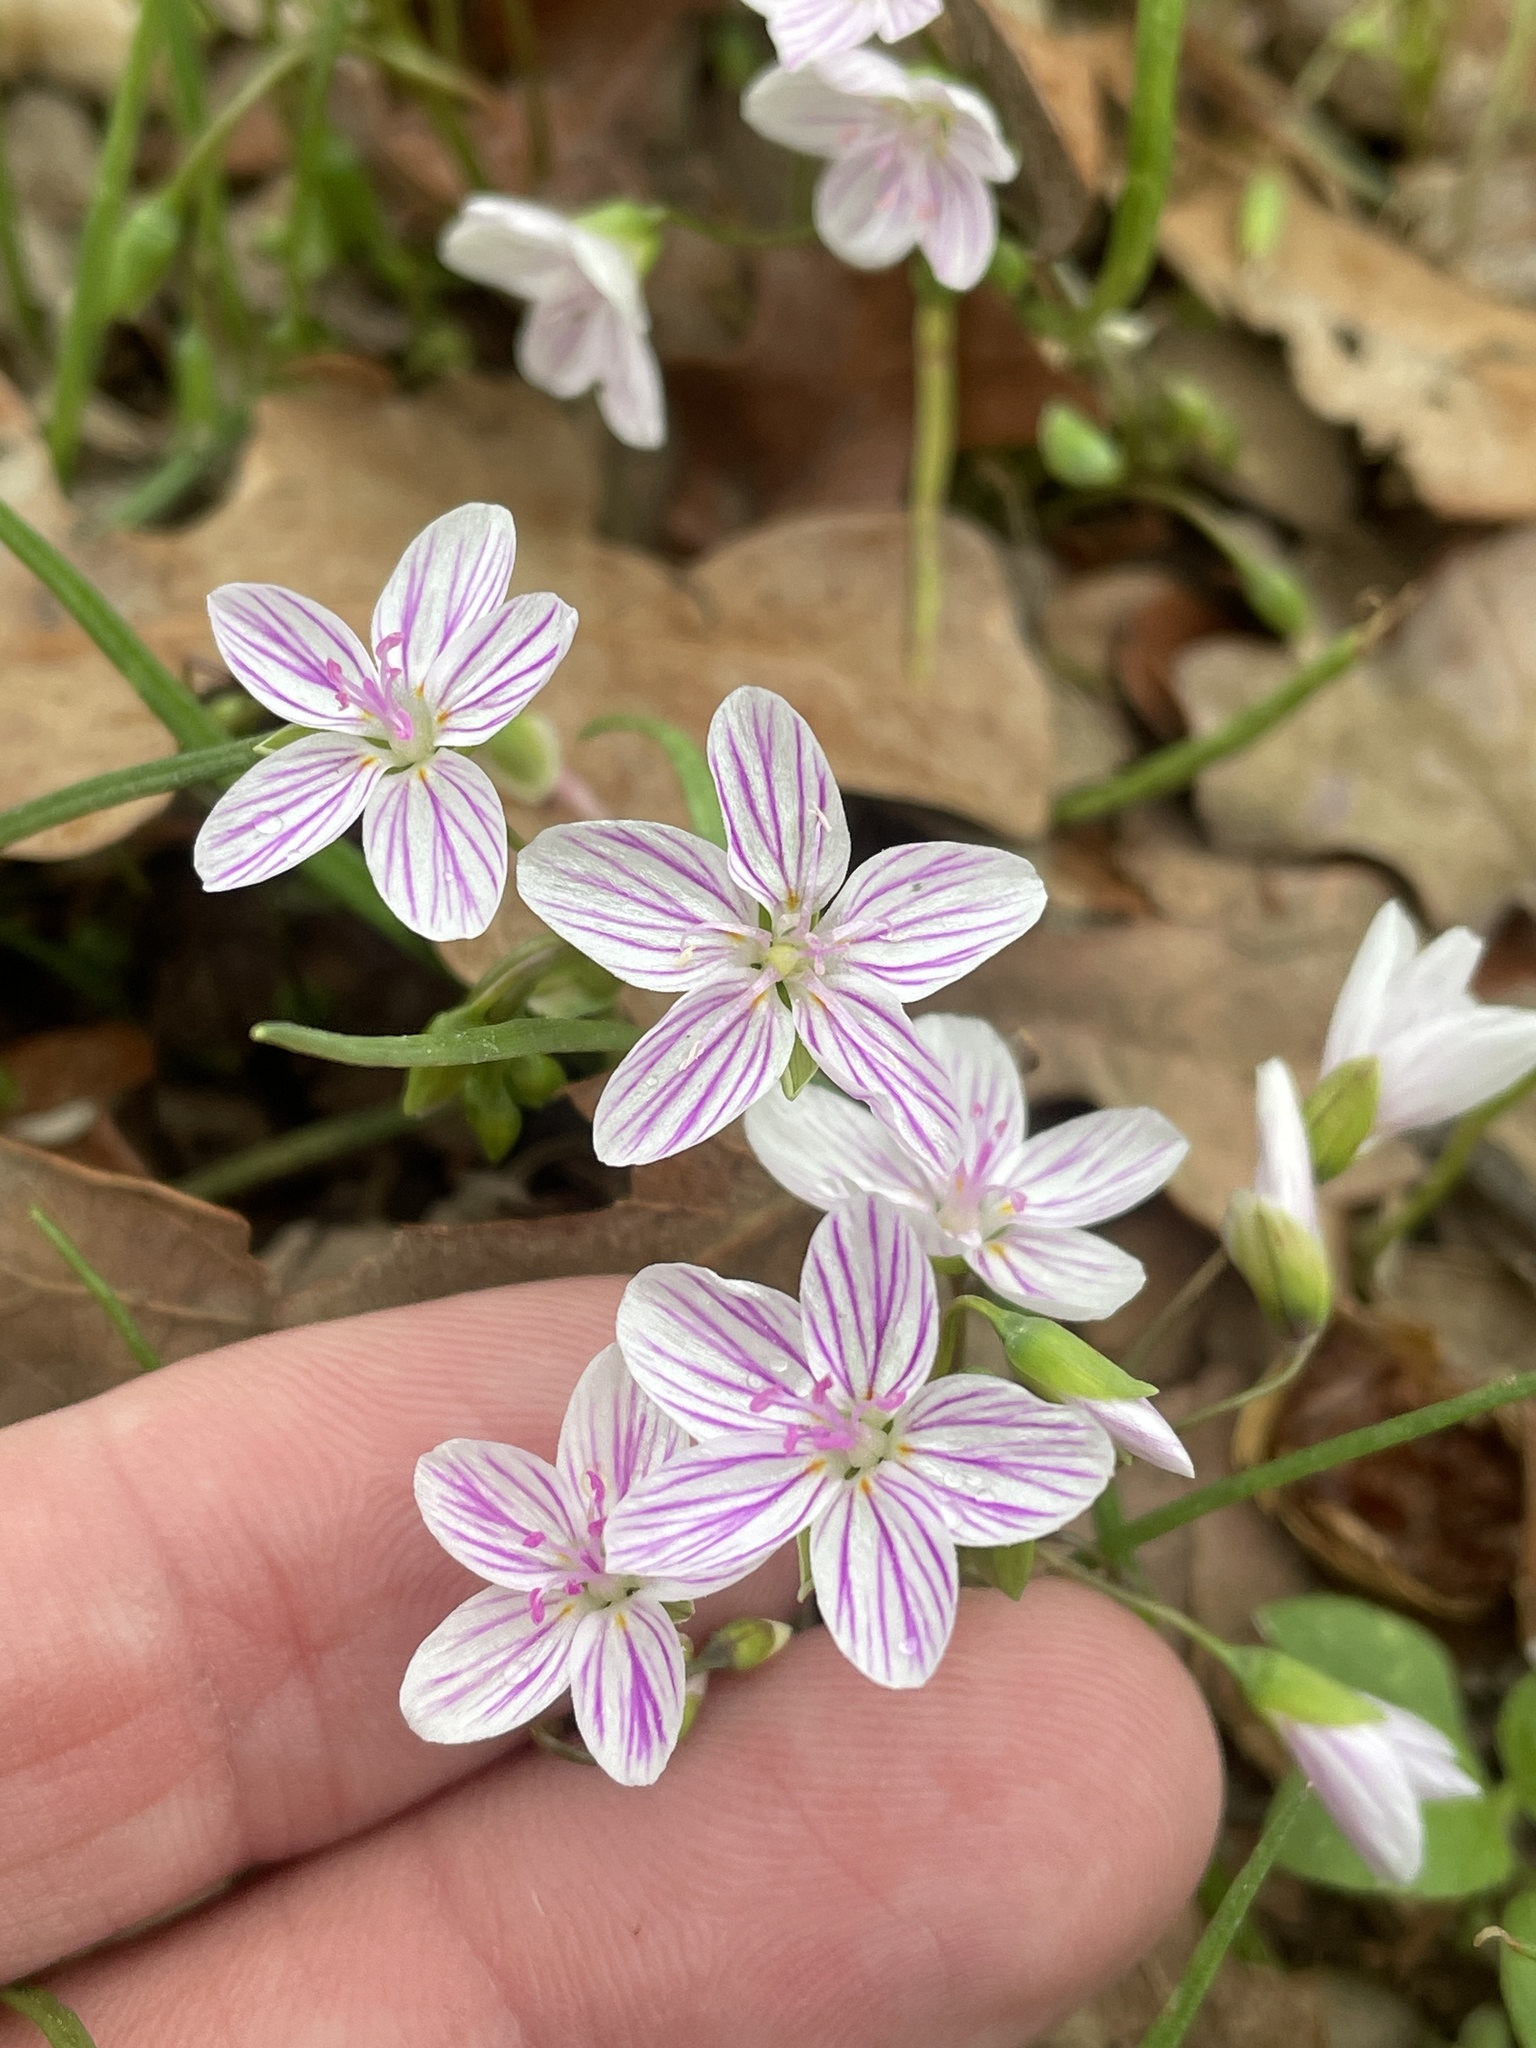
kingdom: Plantae
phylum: Tracheophyta
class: Magnoliopsida
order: Caryophyllales
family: Montiaceae
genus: Claytonia
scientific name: Claytonia virginica
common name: Virginia springbeauty
